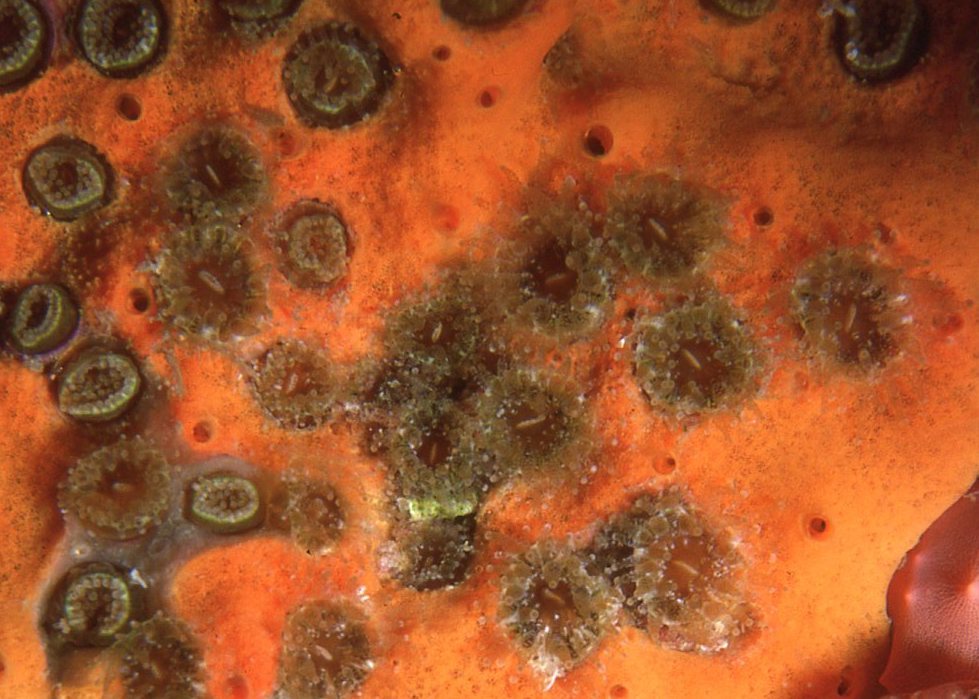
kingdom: Animalia
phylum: Cnidaria
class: Anthozoa
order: Scleractinia
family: Rhizangiidae
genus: Culicia
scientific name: Culicia tenella
